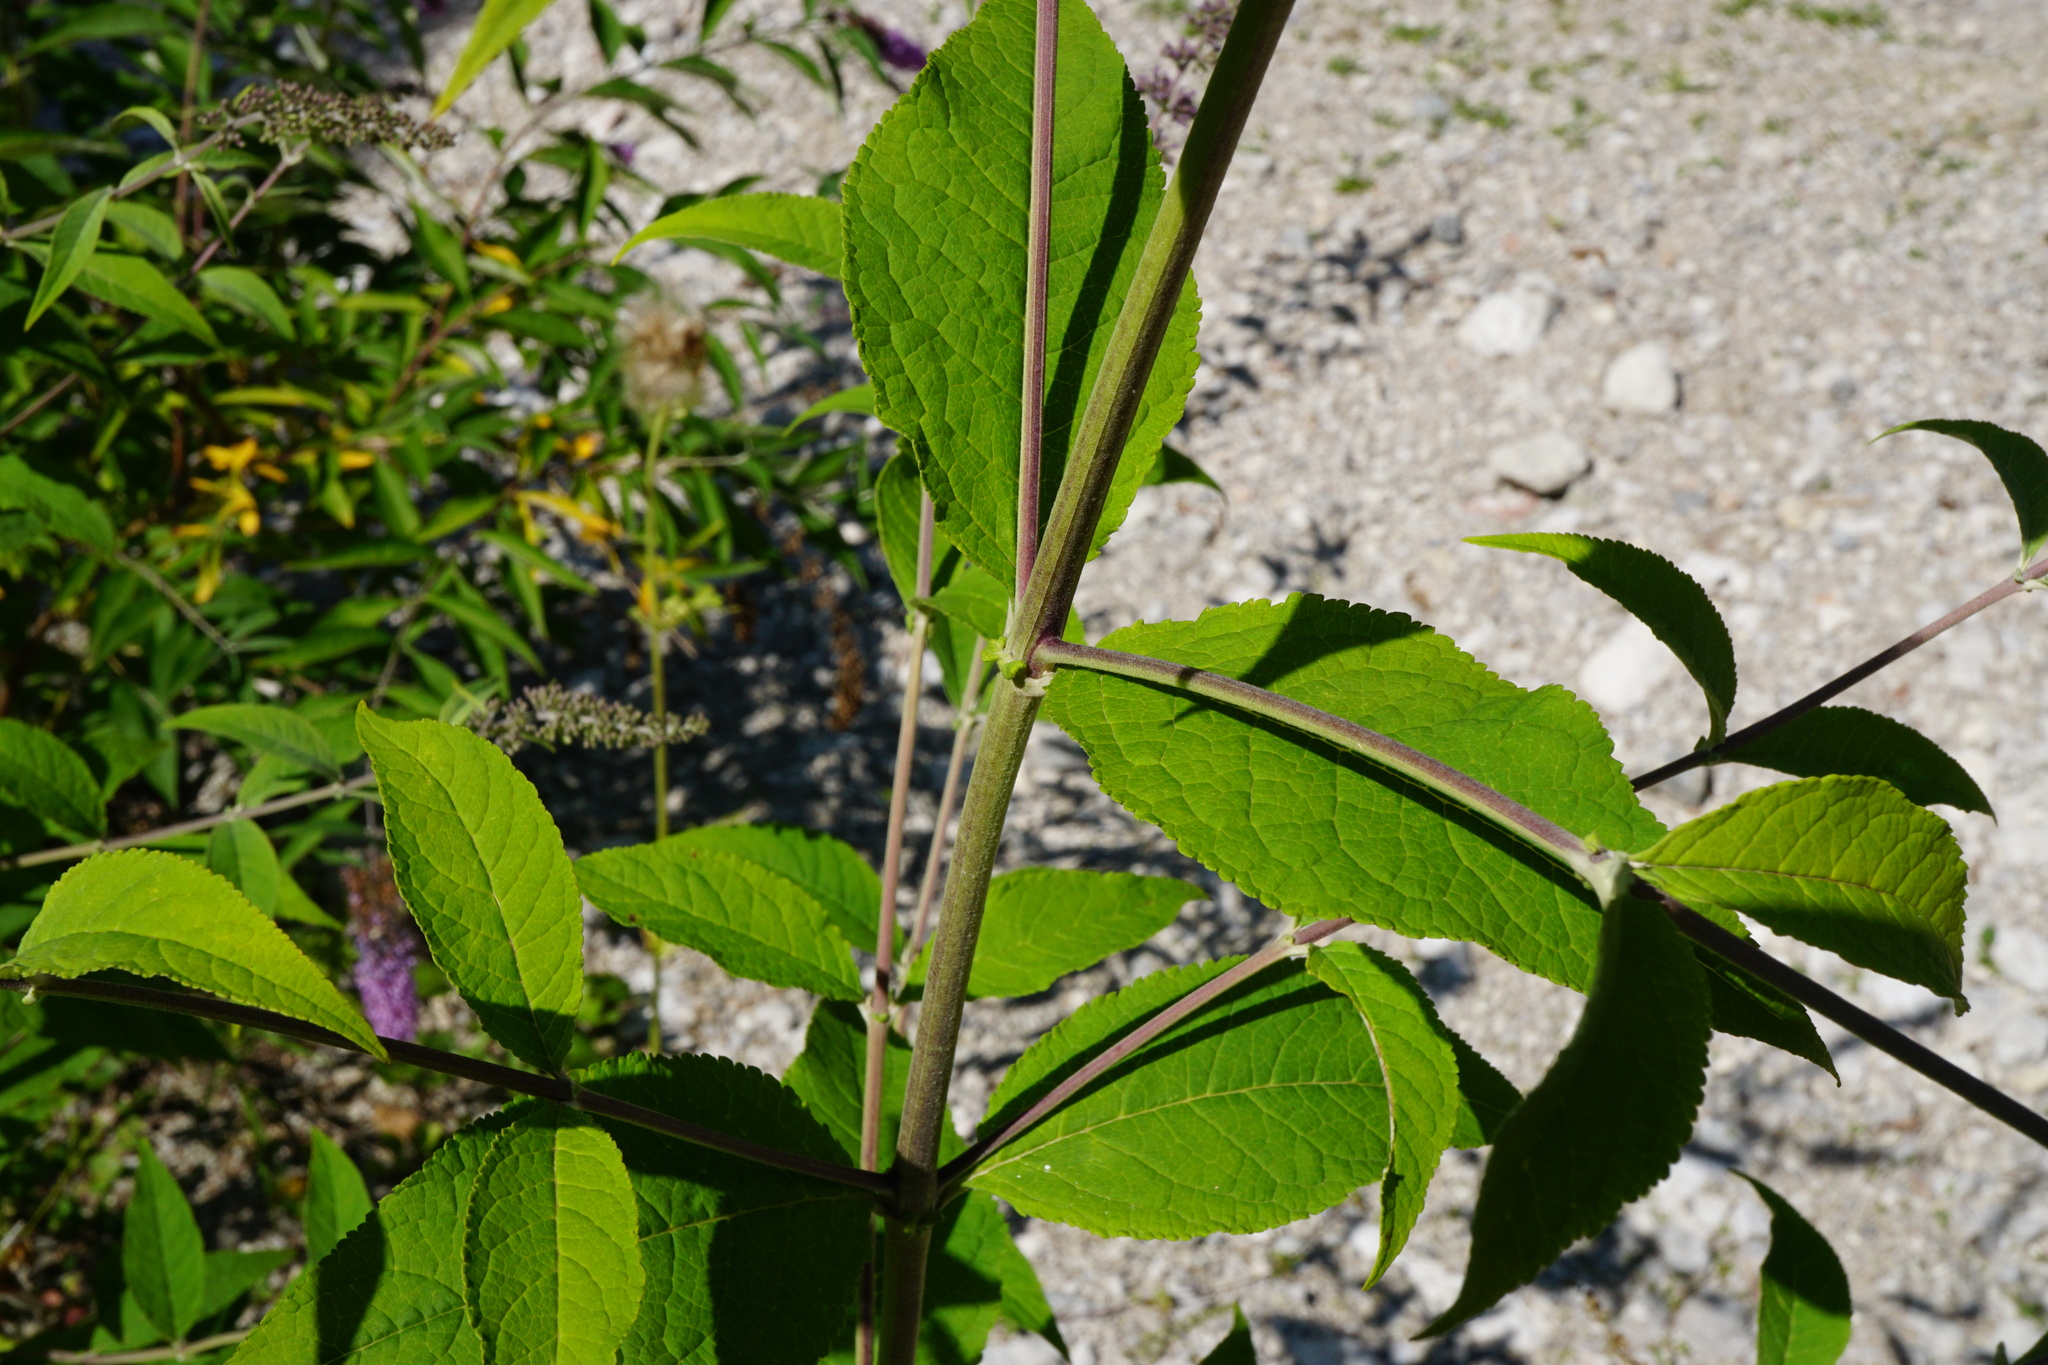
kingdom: Plantae
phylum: Tracheophyta
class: Magnoliopsida
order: Lamiales
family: Scrophulariaceae
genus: Buddleja
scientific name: Buddleja davidii
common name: Butterfly-bush
